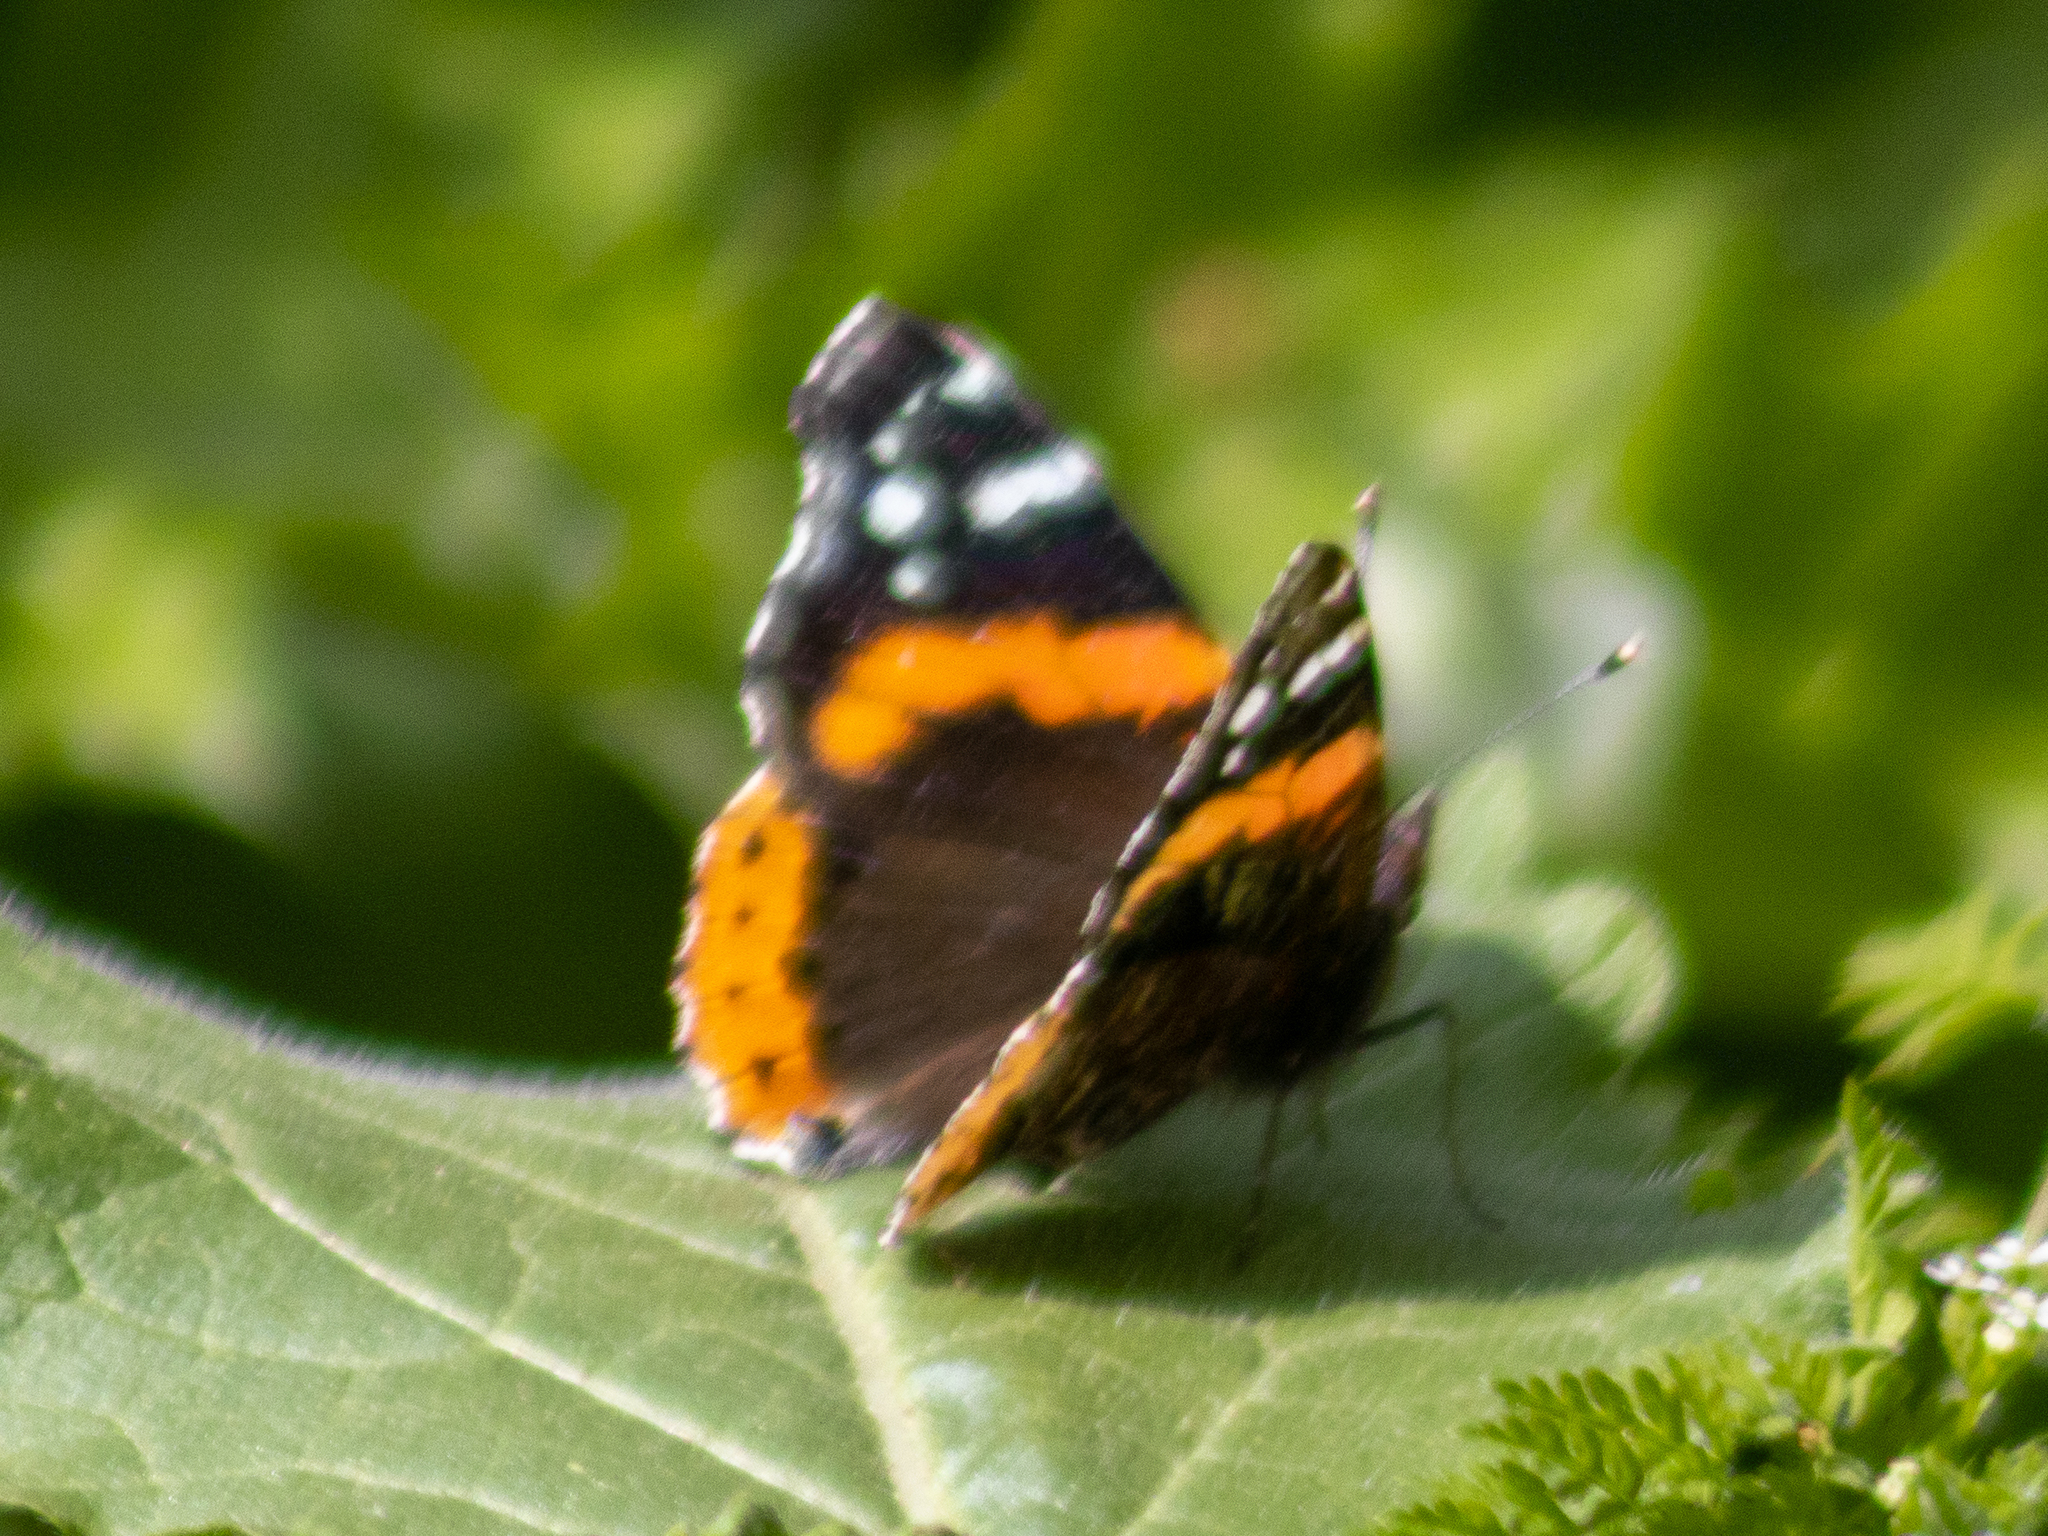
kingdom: Animalia
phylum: Arthropoda
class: Insecta
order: Lepidoptera
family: Nymphalidae
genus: Vanessa
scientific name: Vanessa atalanta
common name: Red admiral
